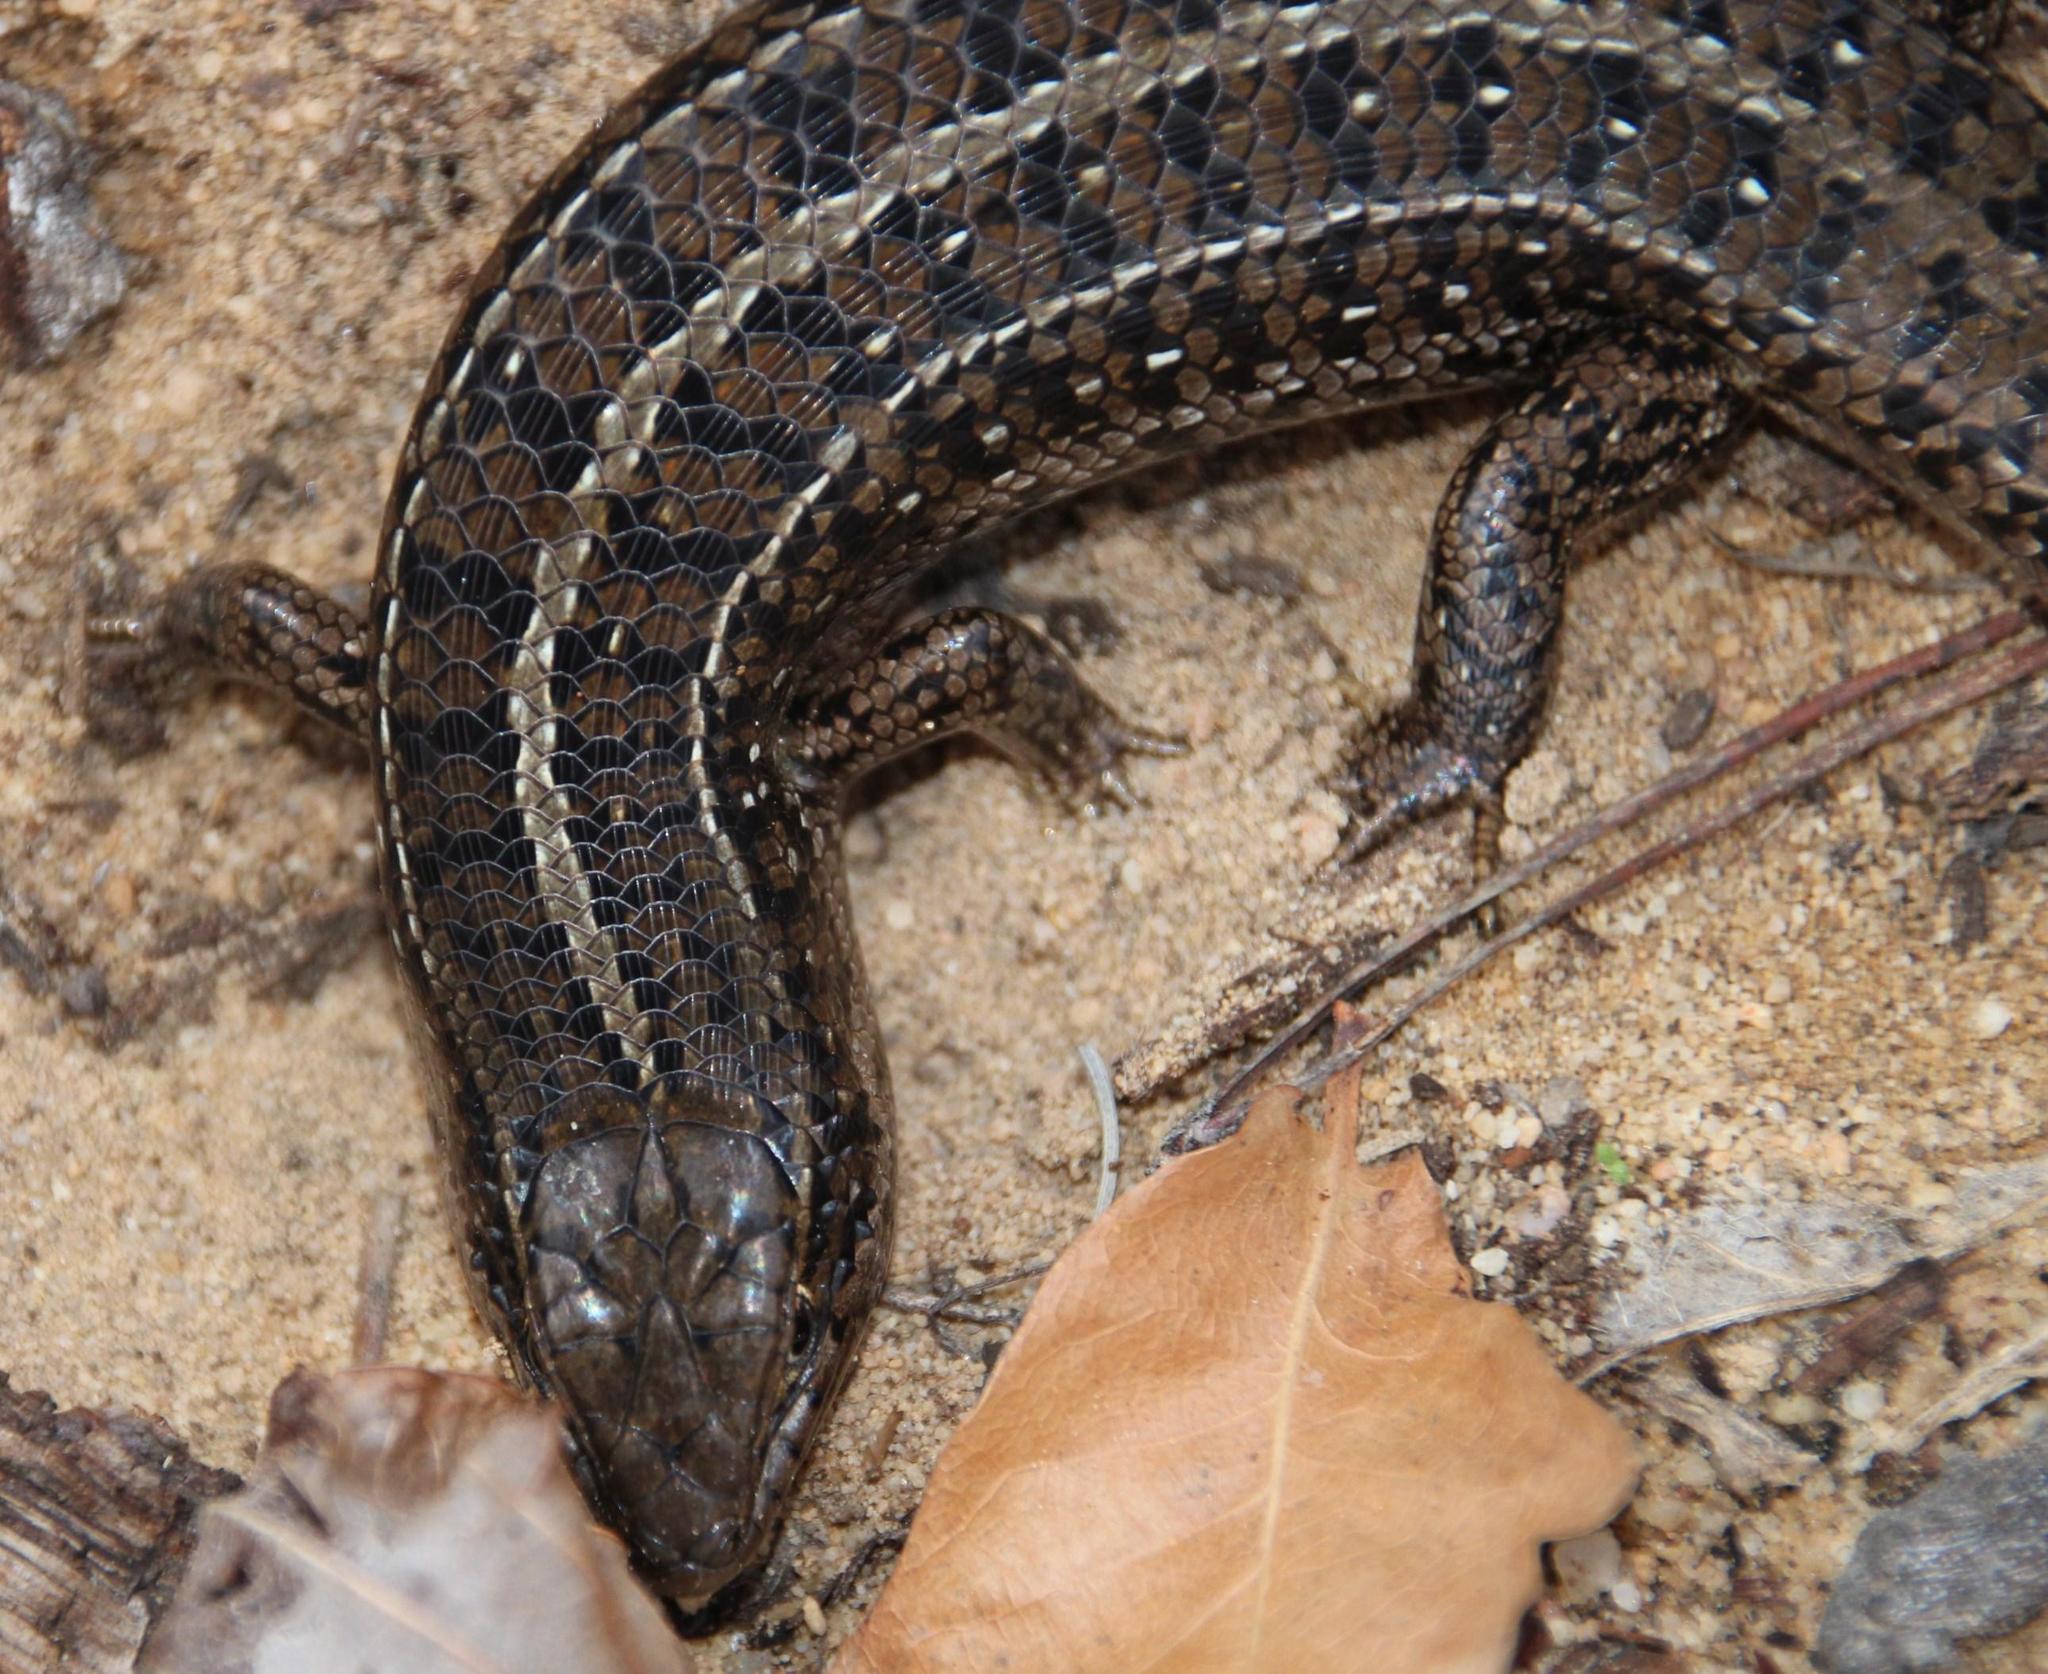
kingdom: Animalia
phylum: Chordata
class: Squamata
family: Scincidae
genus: Trachylepis
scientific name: Trachylepis capensis
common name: Cape skink
